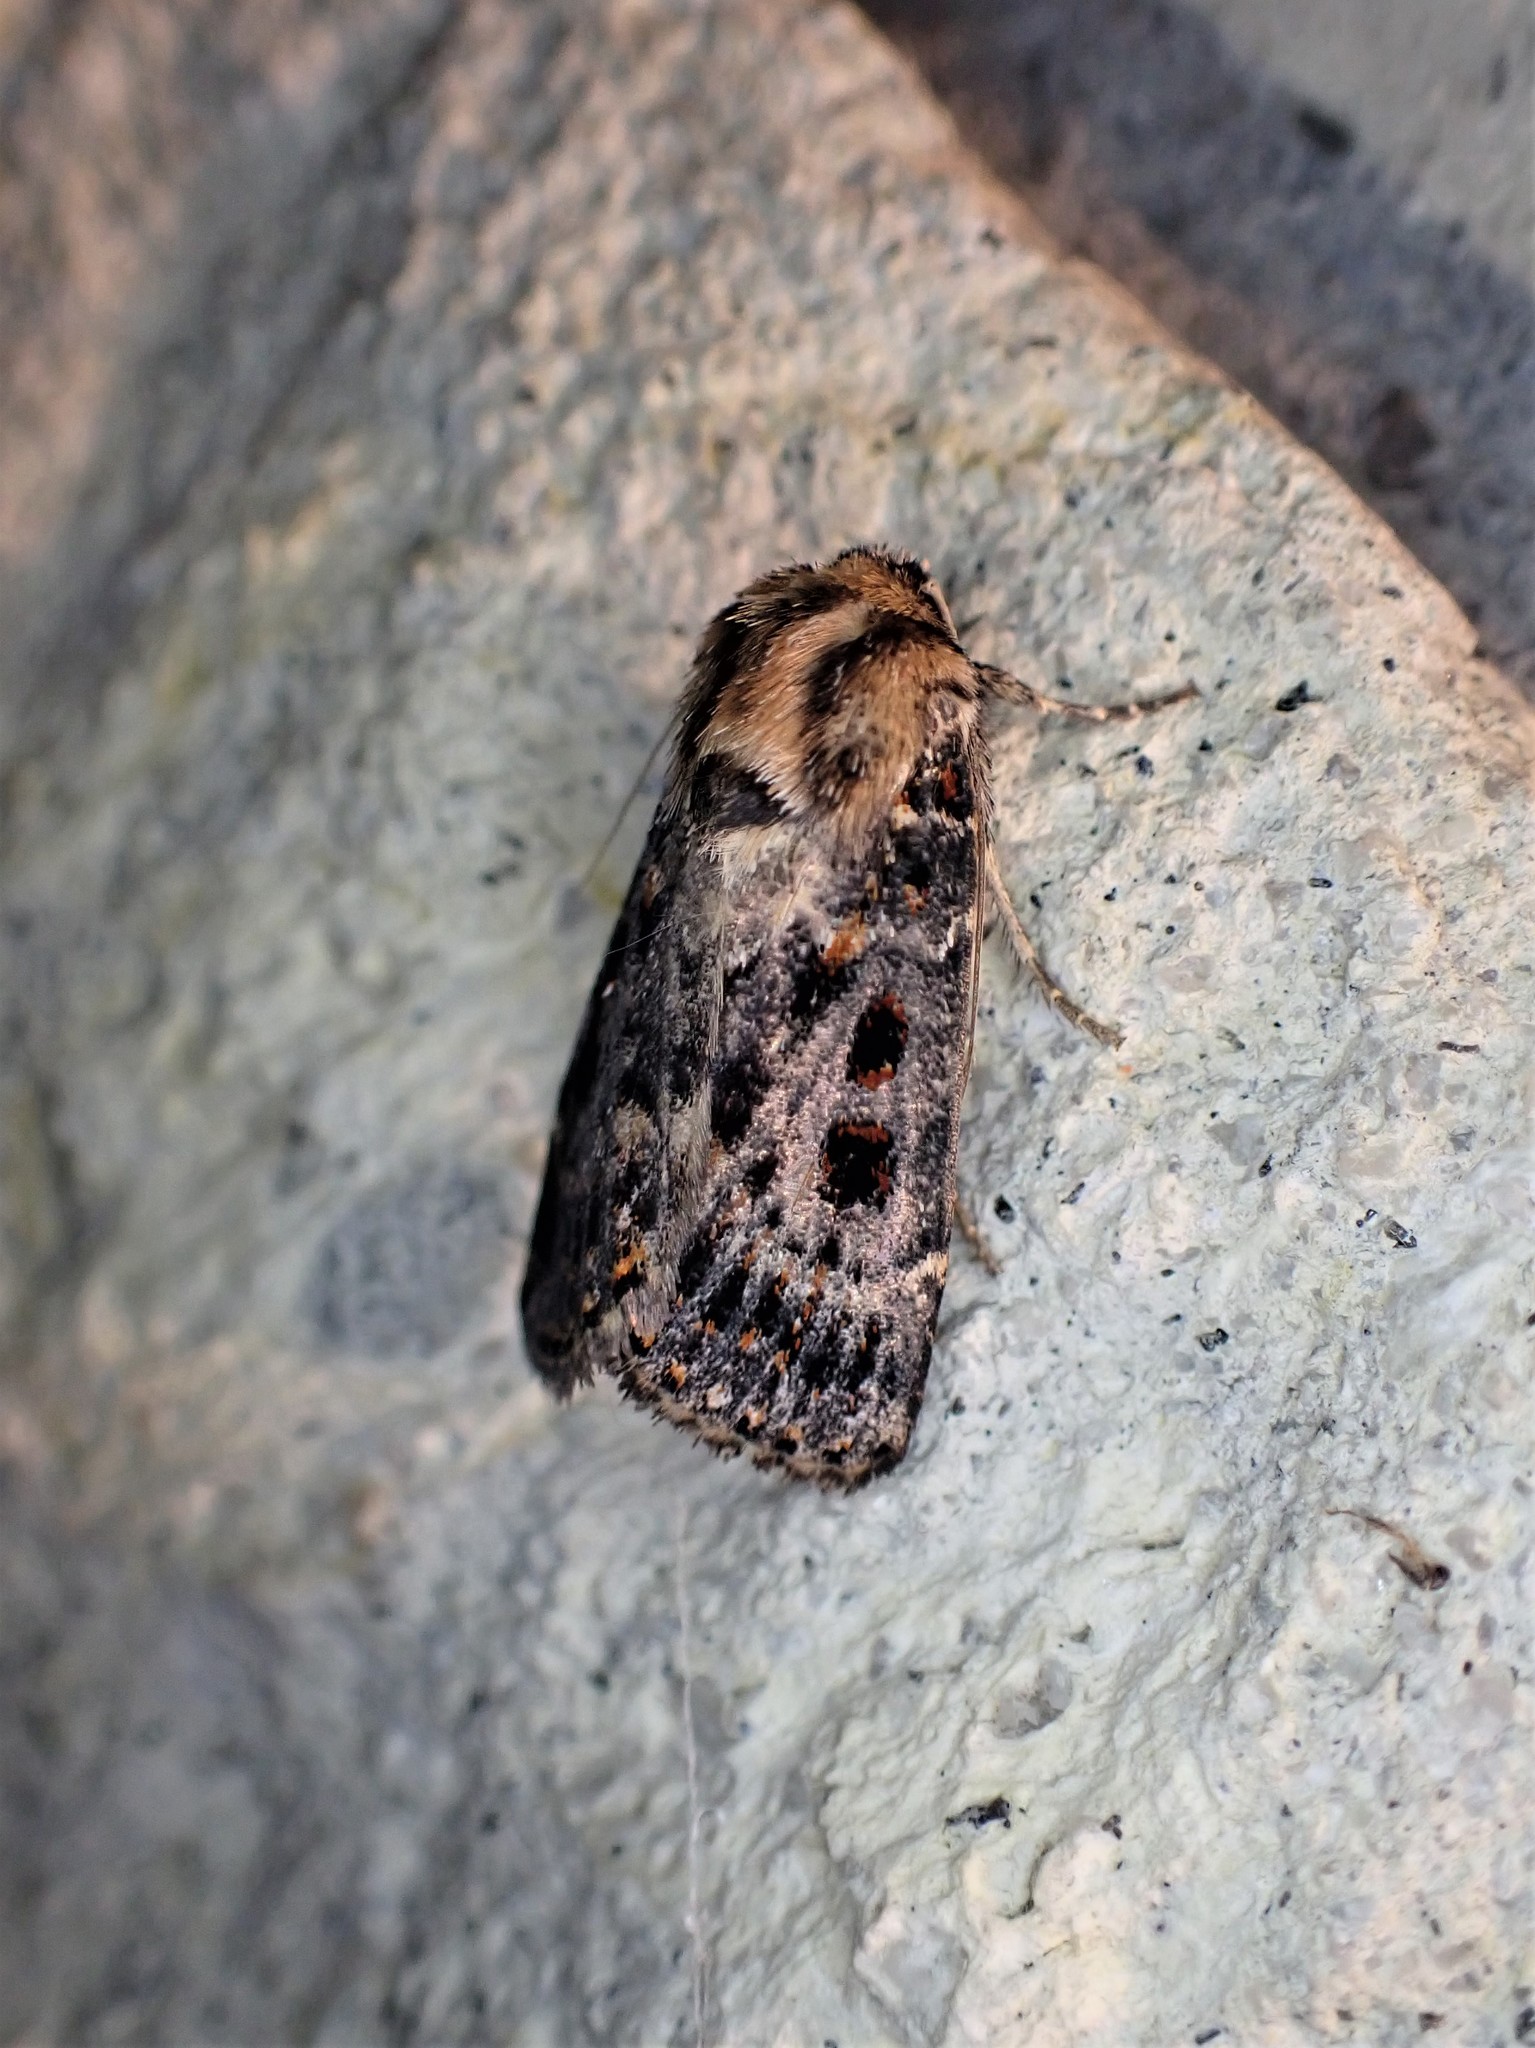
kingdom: Animalia
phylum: Arthropoda
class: Insecta
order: Lepidoptera
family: Noctuidae
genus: Proteuxoa
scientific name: Proteuxoa sanguinipuncta
